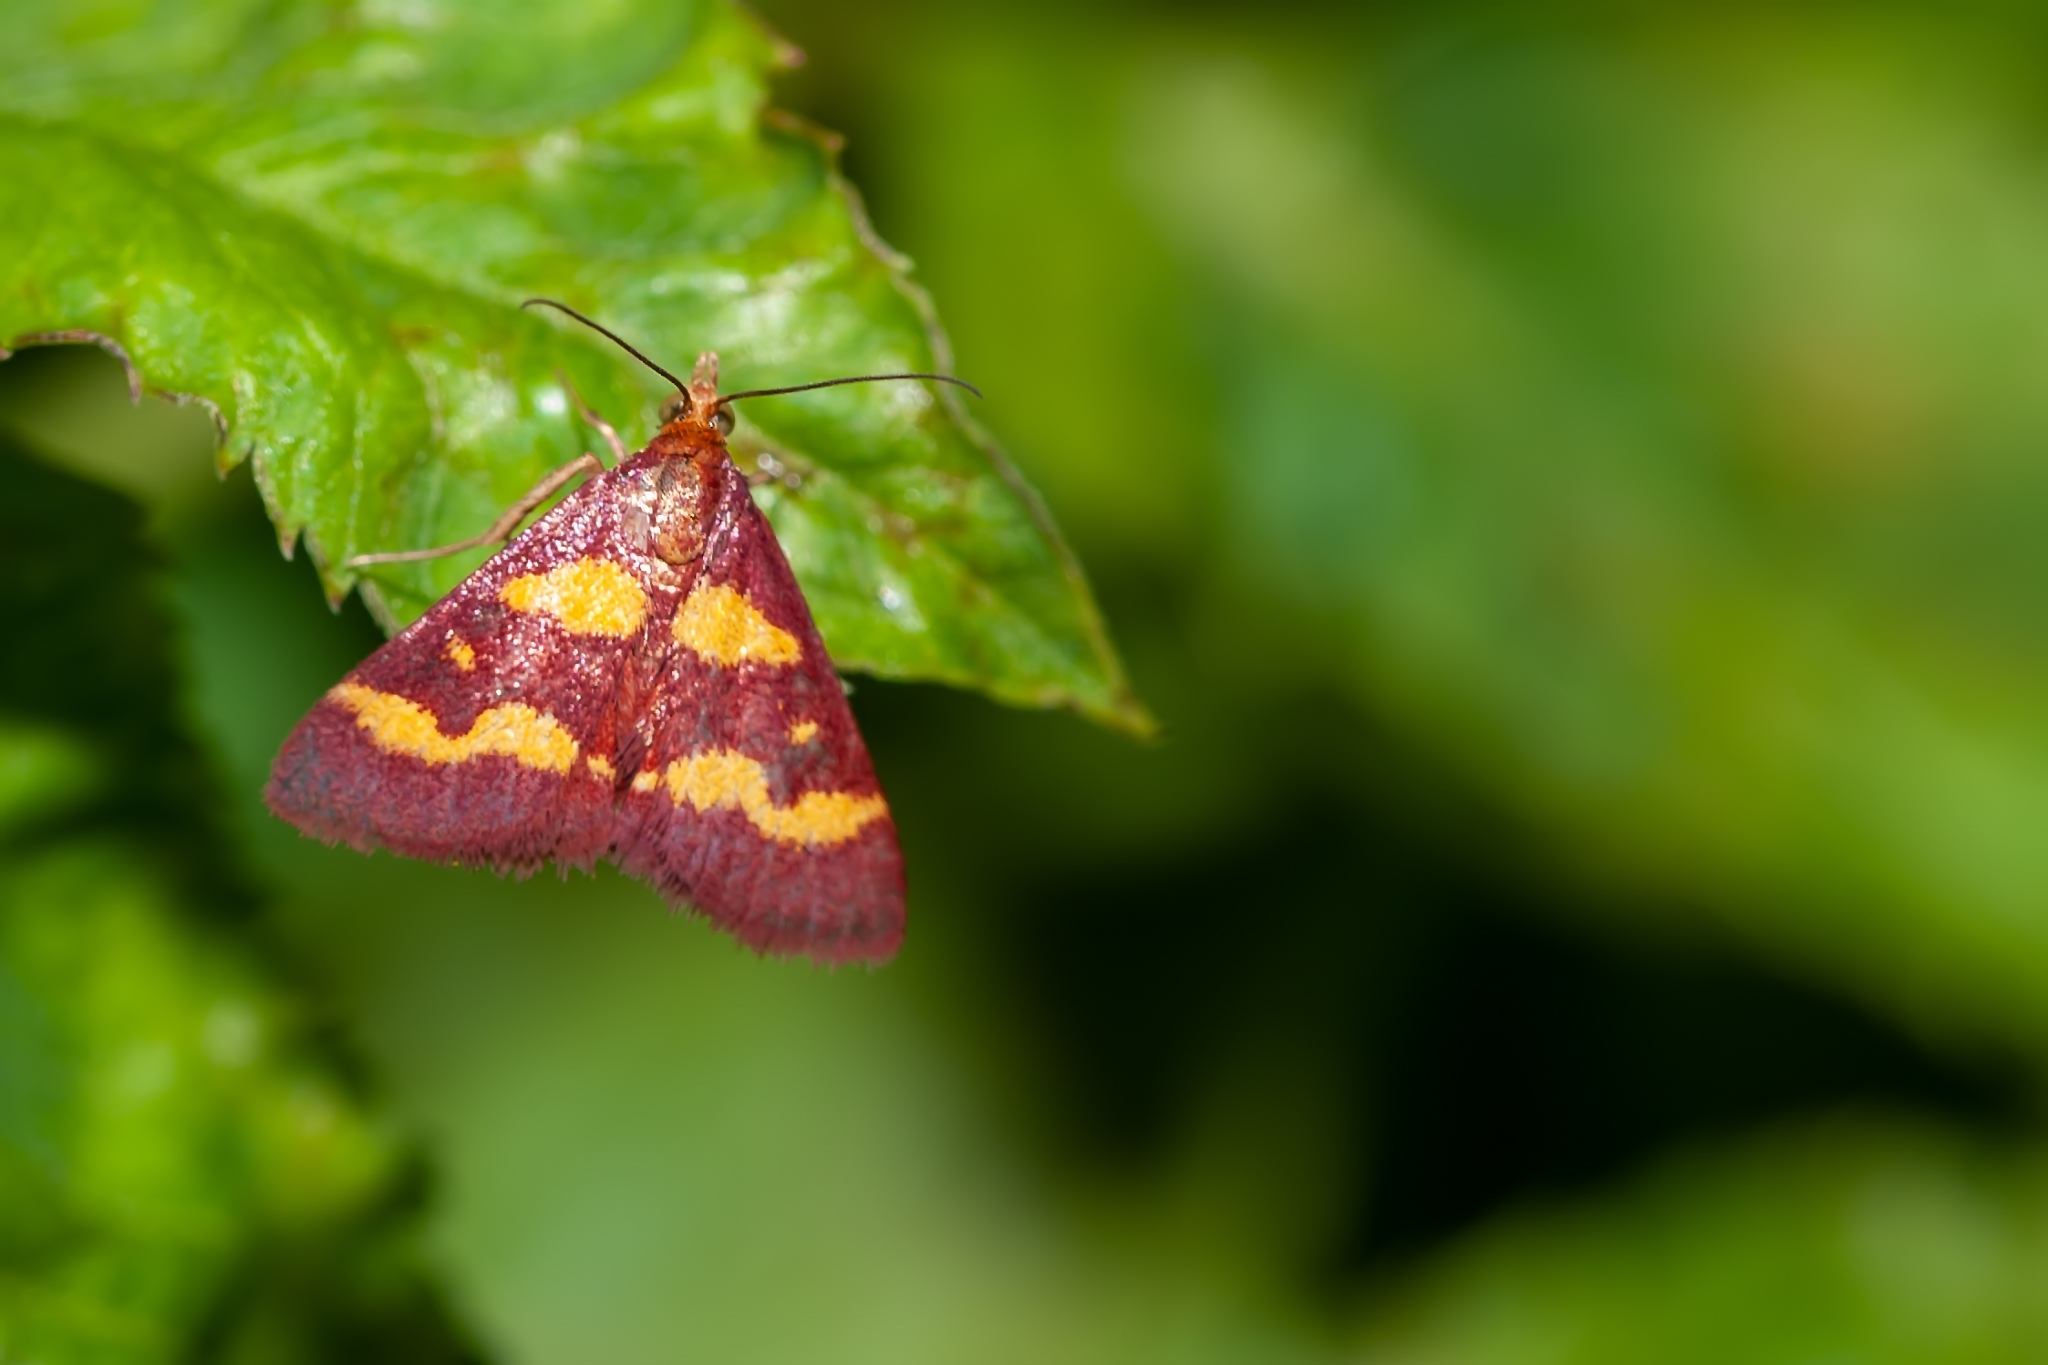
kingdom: Animalia
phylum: Arthropoda
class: Insecta
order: Lepidoptera
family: Crambidae
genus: Pyrausta
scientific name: Pyrausta tyralis
